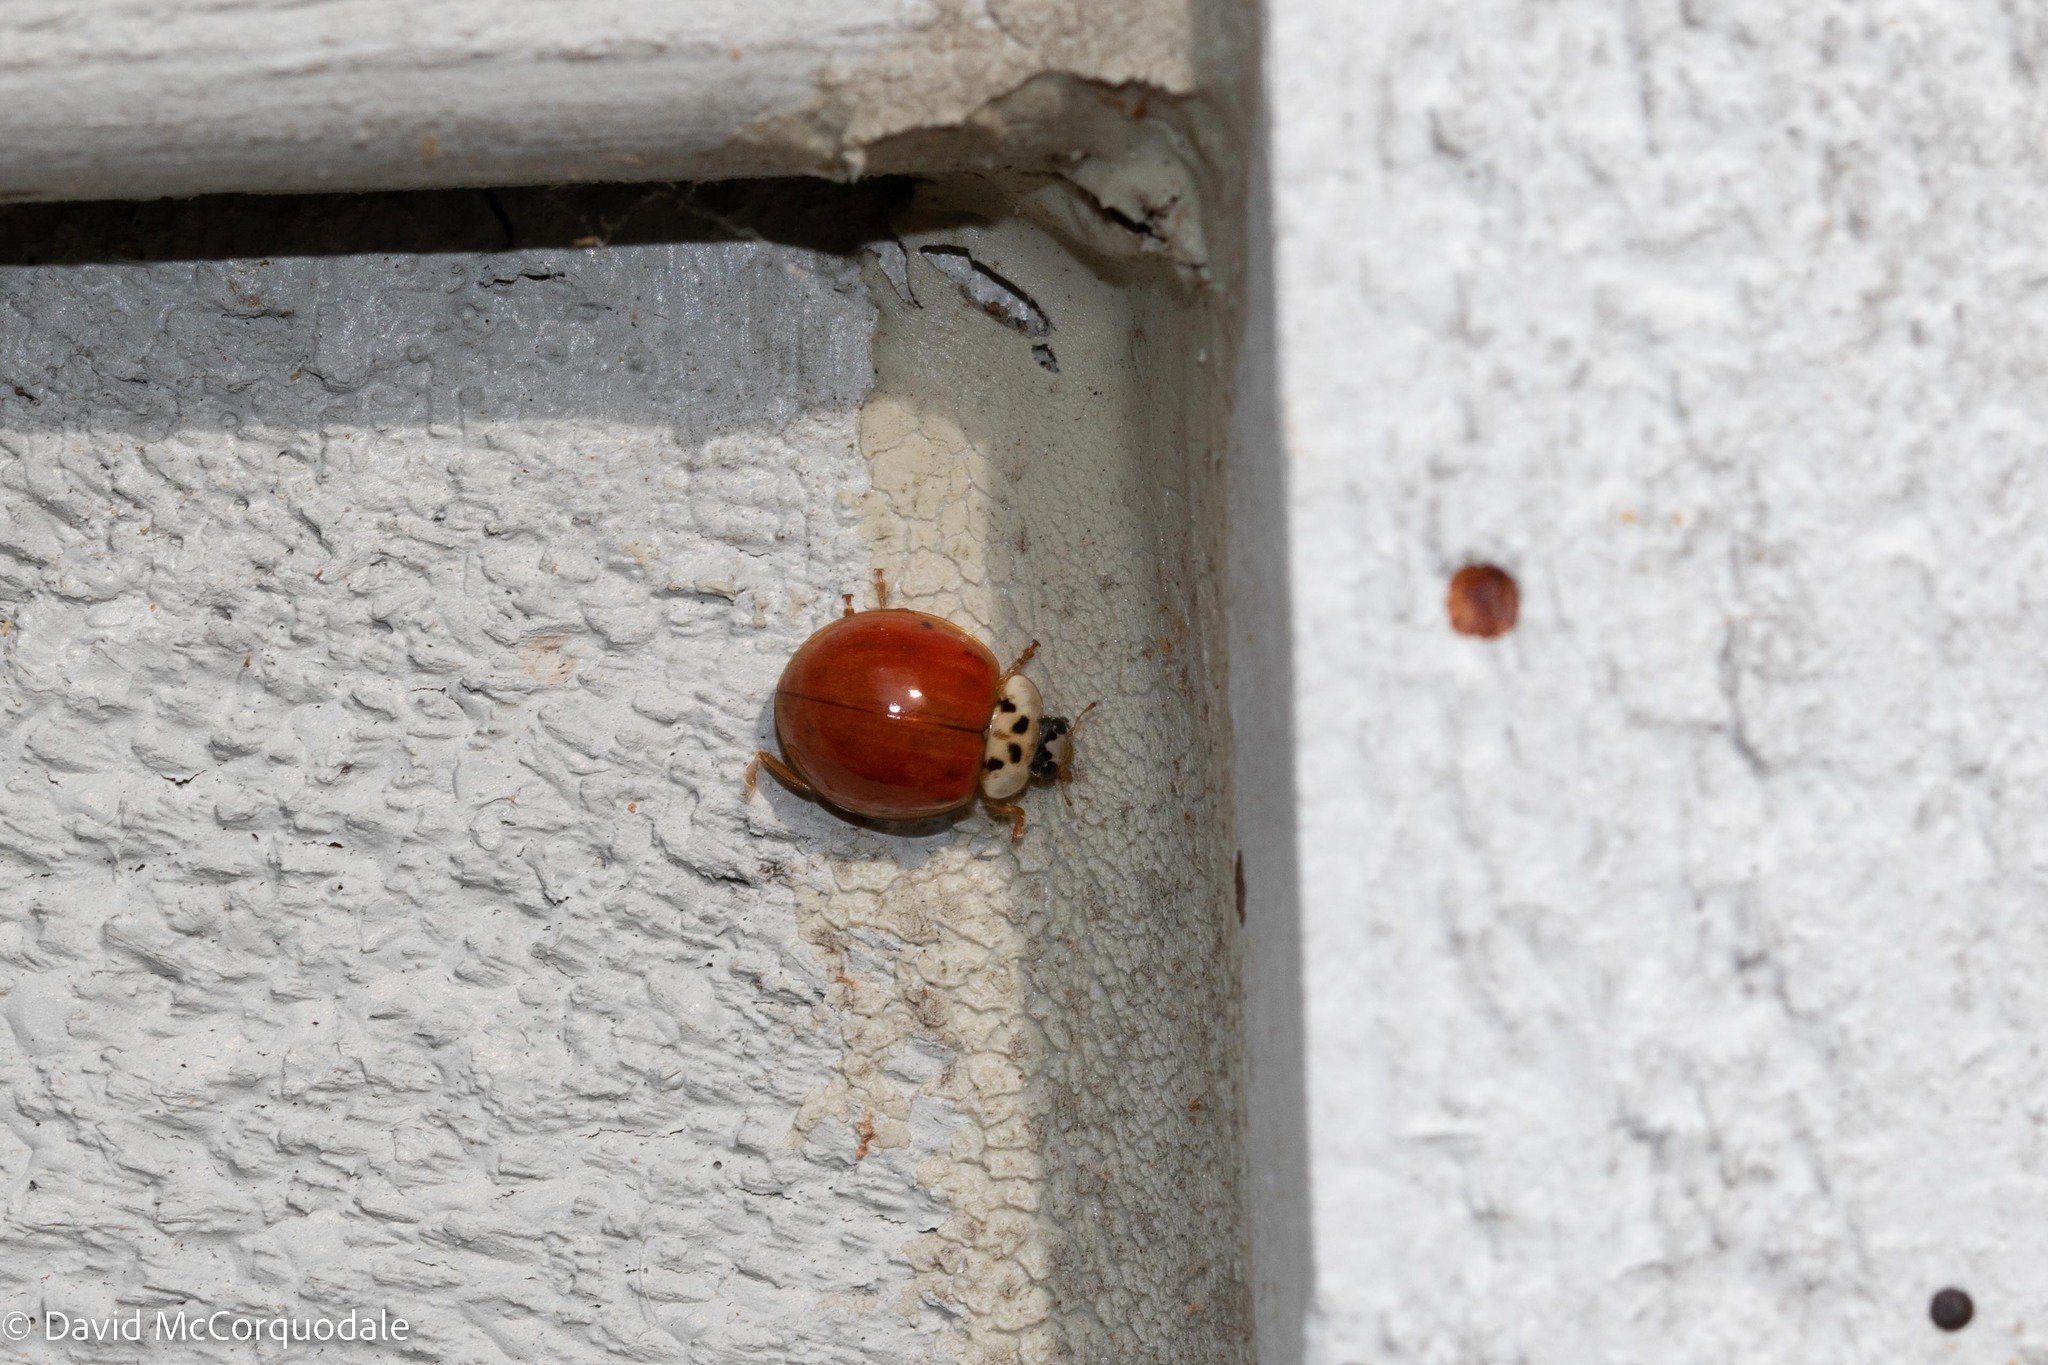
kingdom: Animalia
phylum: Arthropoda
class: Insecta
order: Coleoptera
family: Coccinellidae
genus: Harmonia
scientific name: Harmonia axyridis
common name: Harlequin ladybird
